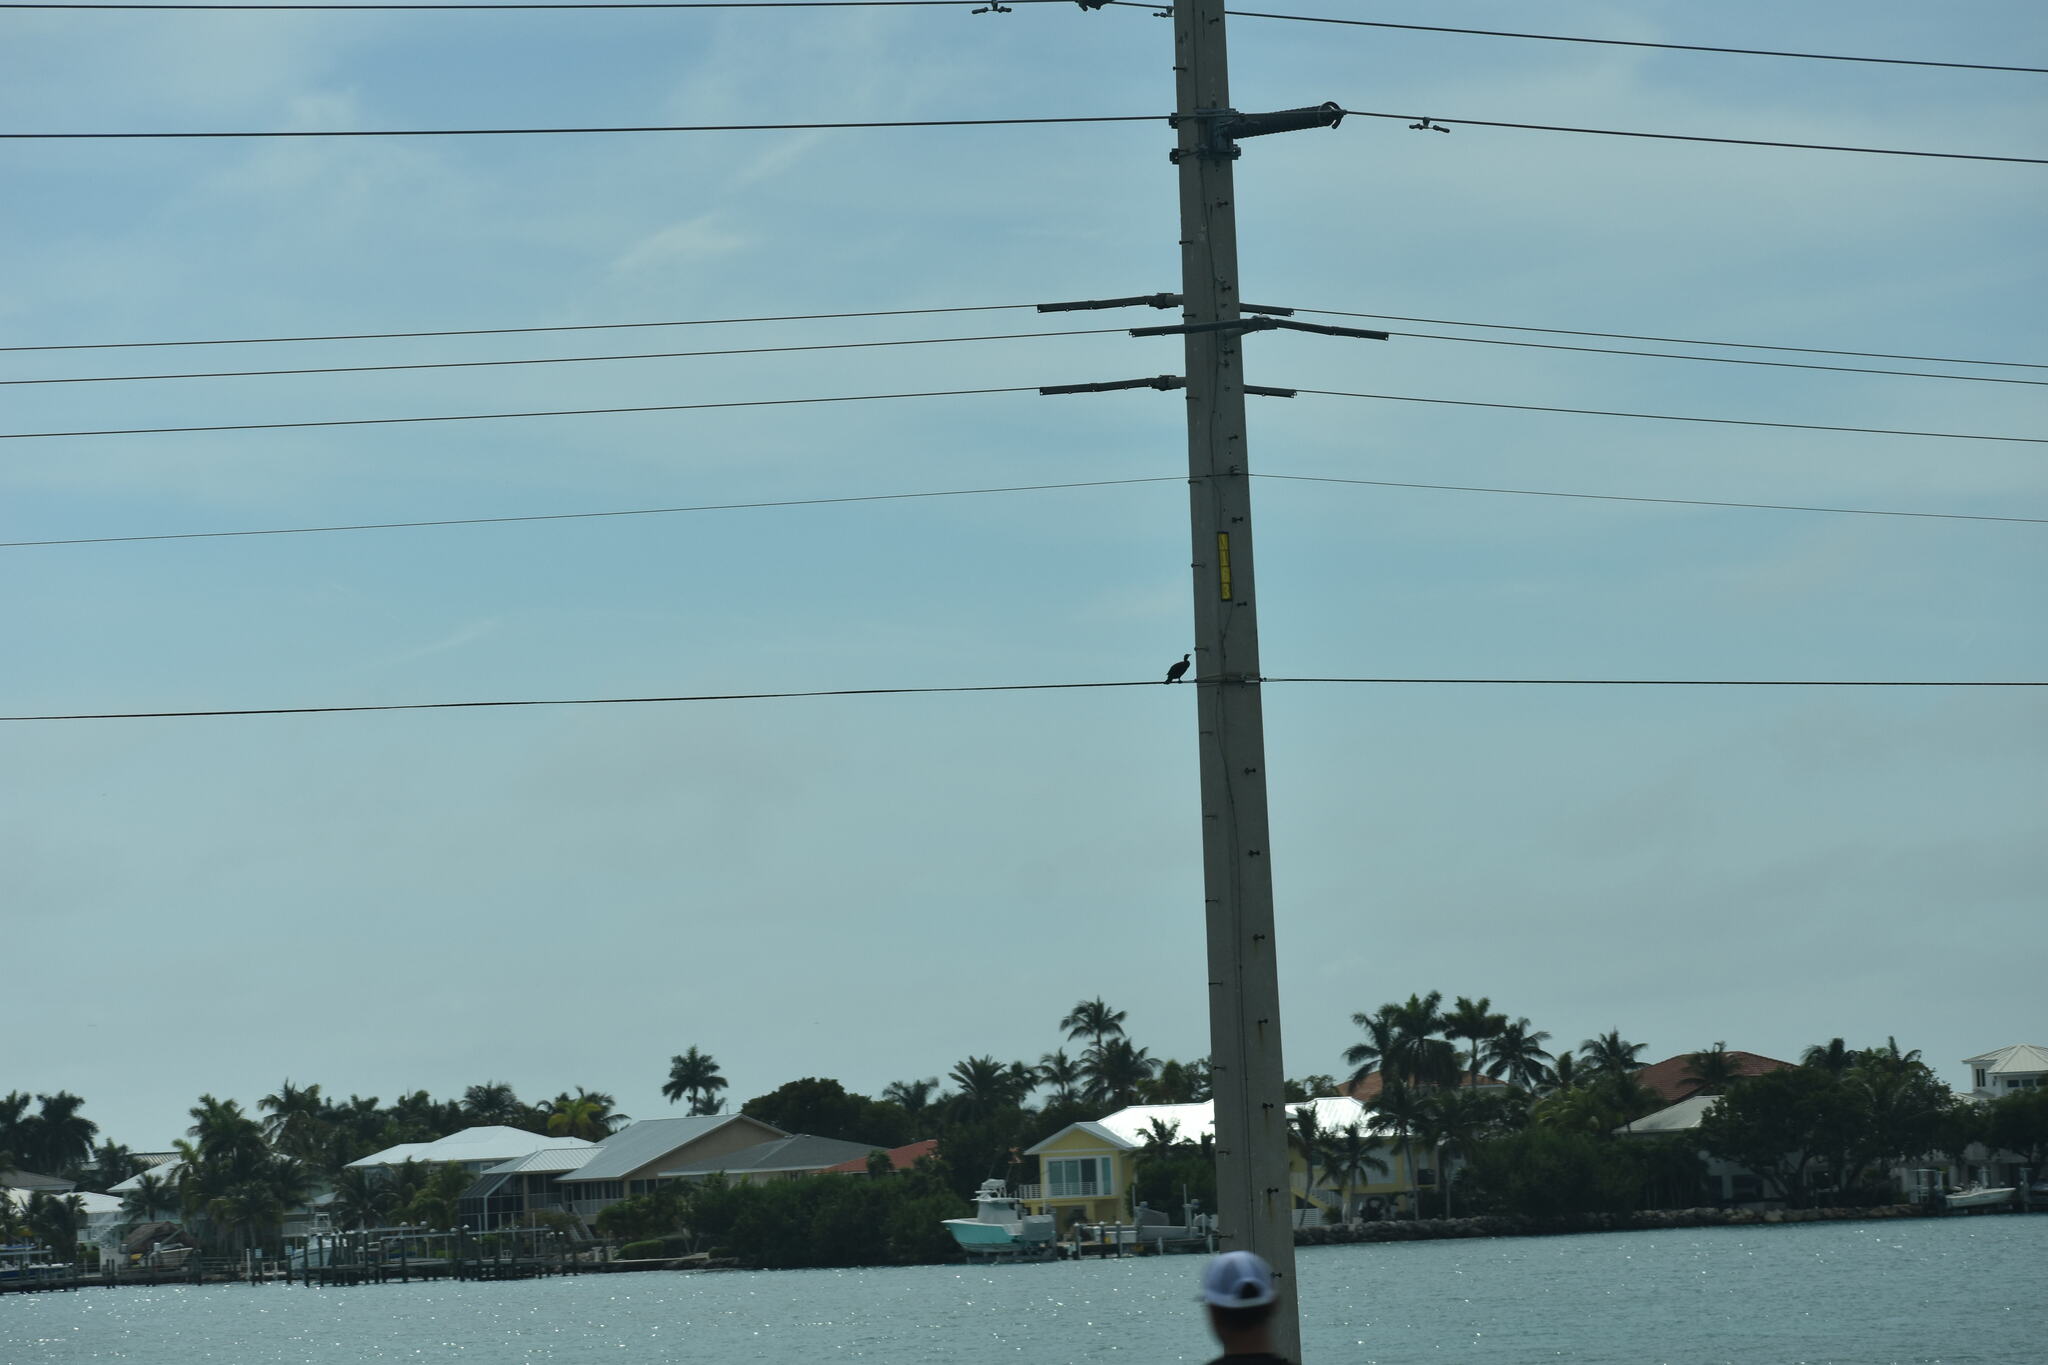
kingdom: Animalia
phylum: Chordata
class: Aves
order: Suliformes
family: Phalacrocoracidae
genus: Phalacrocorax
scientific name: Phalacrocorax auritus
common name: Double-crested cormorant
